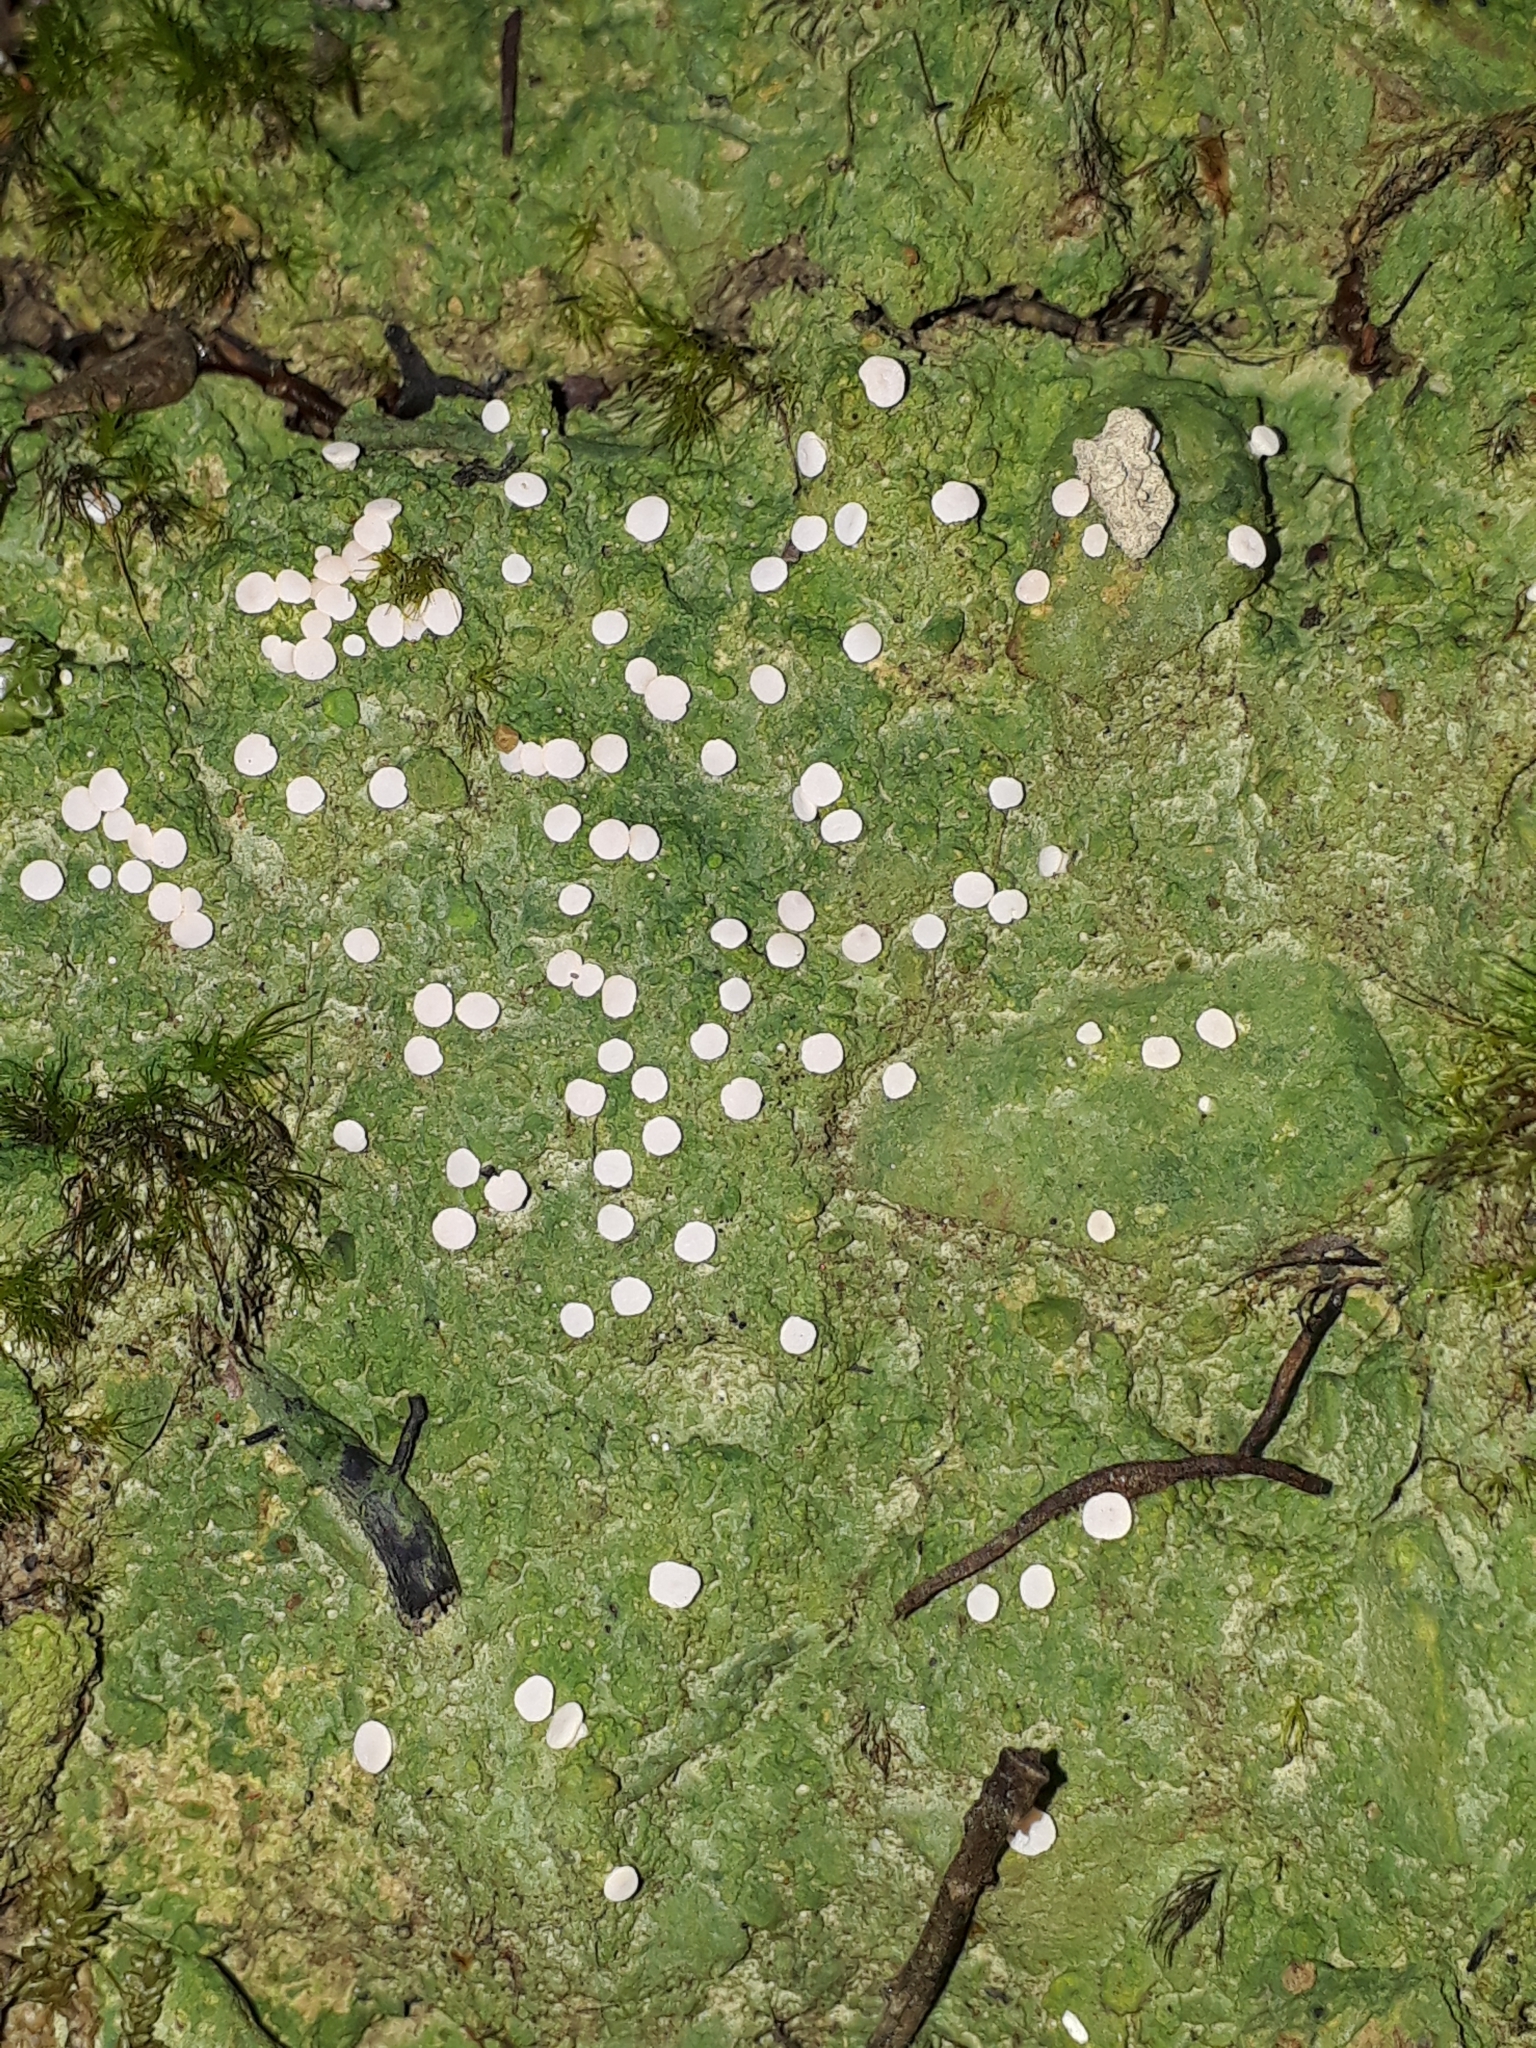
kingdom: Fungi
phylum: Ascomycota
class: Lecanoromycetes
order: Pertusariales
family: Icmadophilaceae
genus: Dibaeis
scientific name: Dibaeis absoluta
